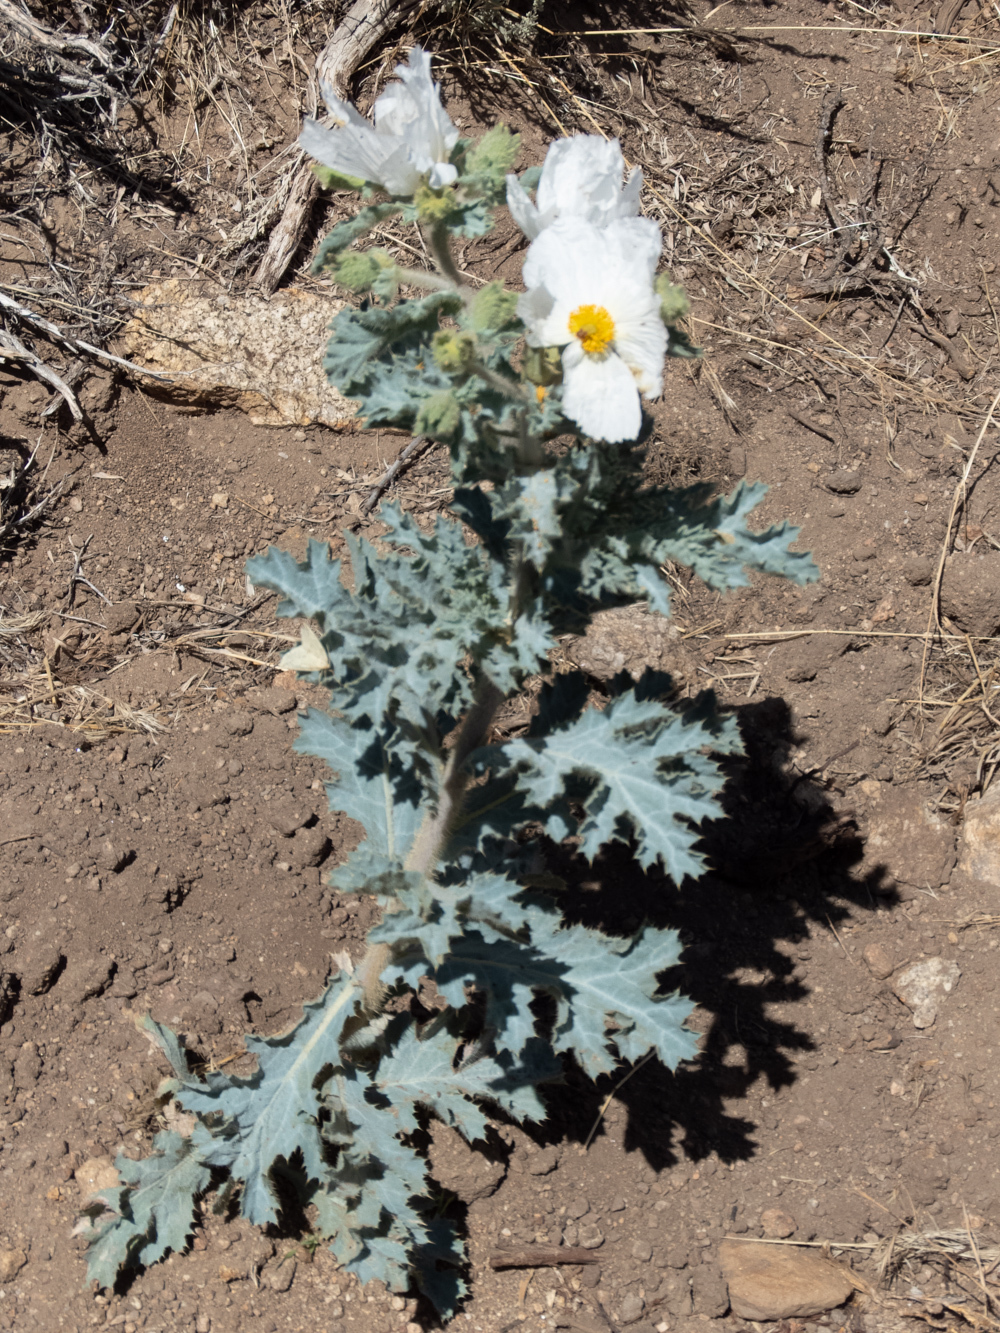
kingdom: Plantae
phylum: Tracheophyta
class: Magnoliopsida
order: Ranunculales
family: Papaveraceae
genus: Argemone
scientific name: Argemone munita
